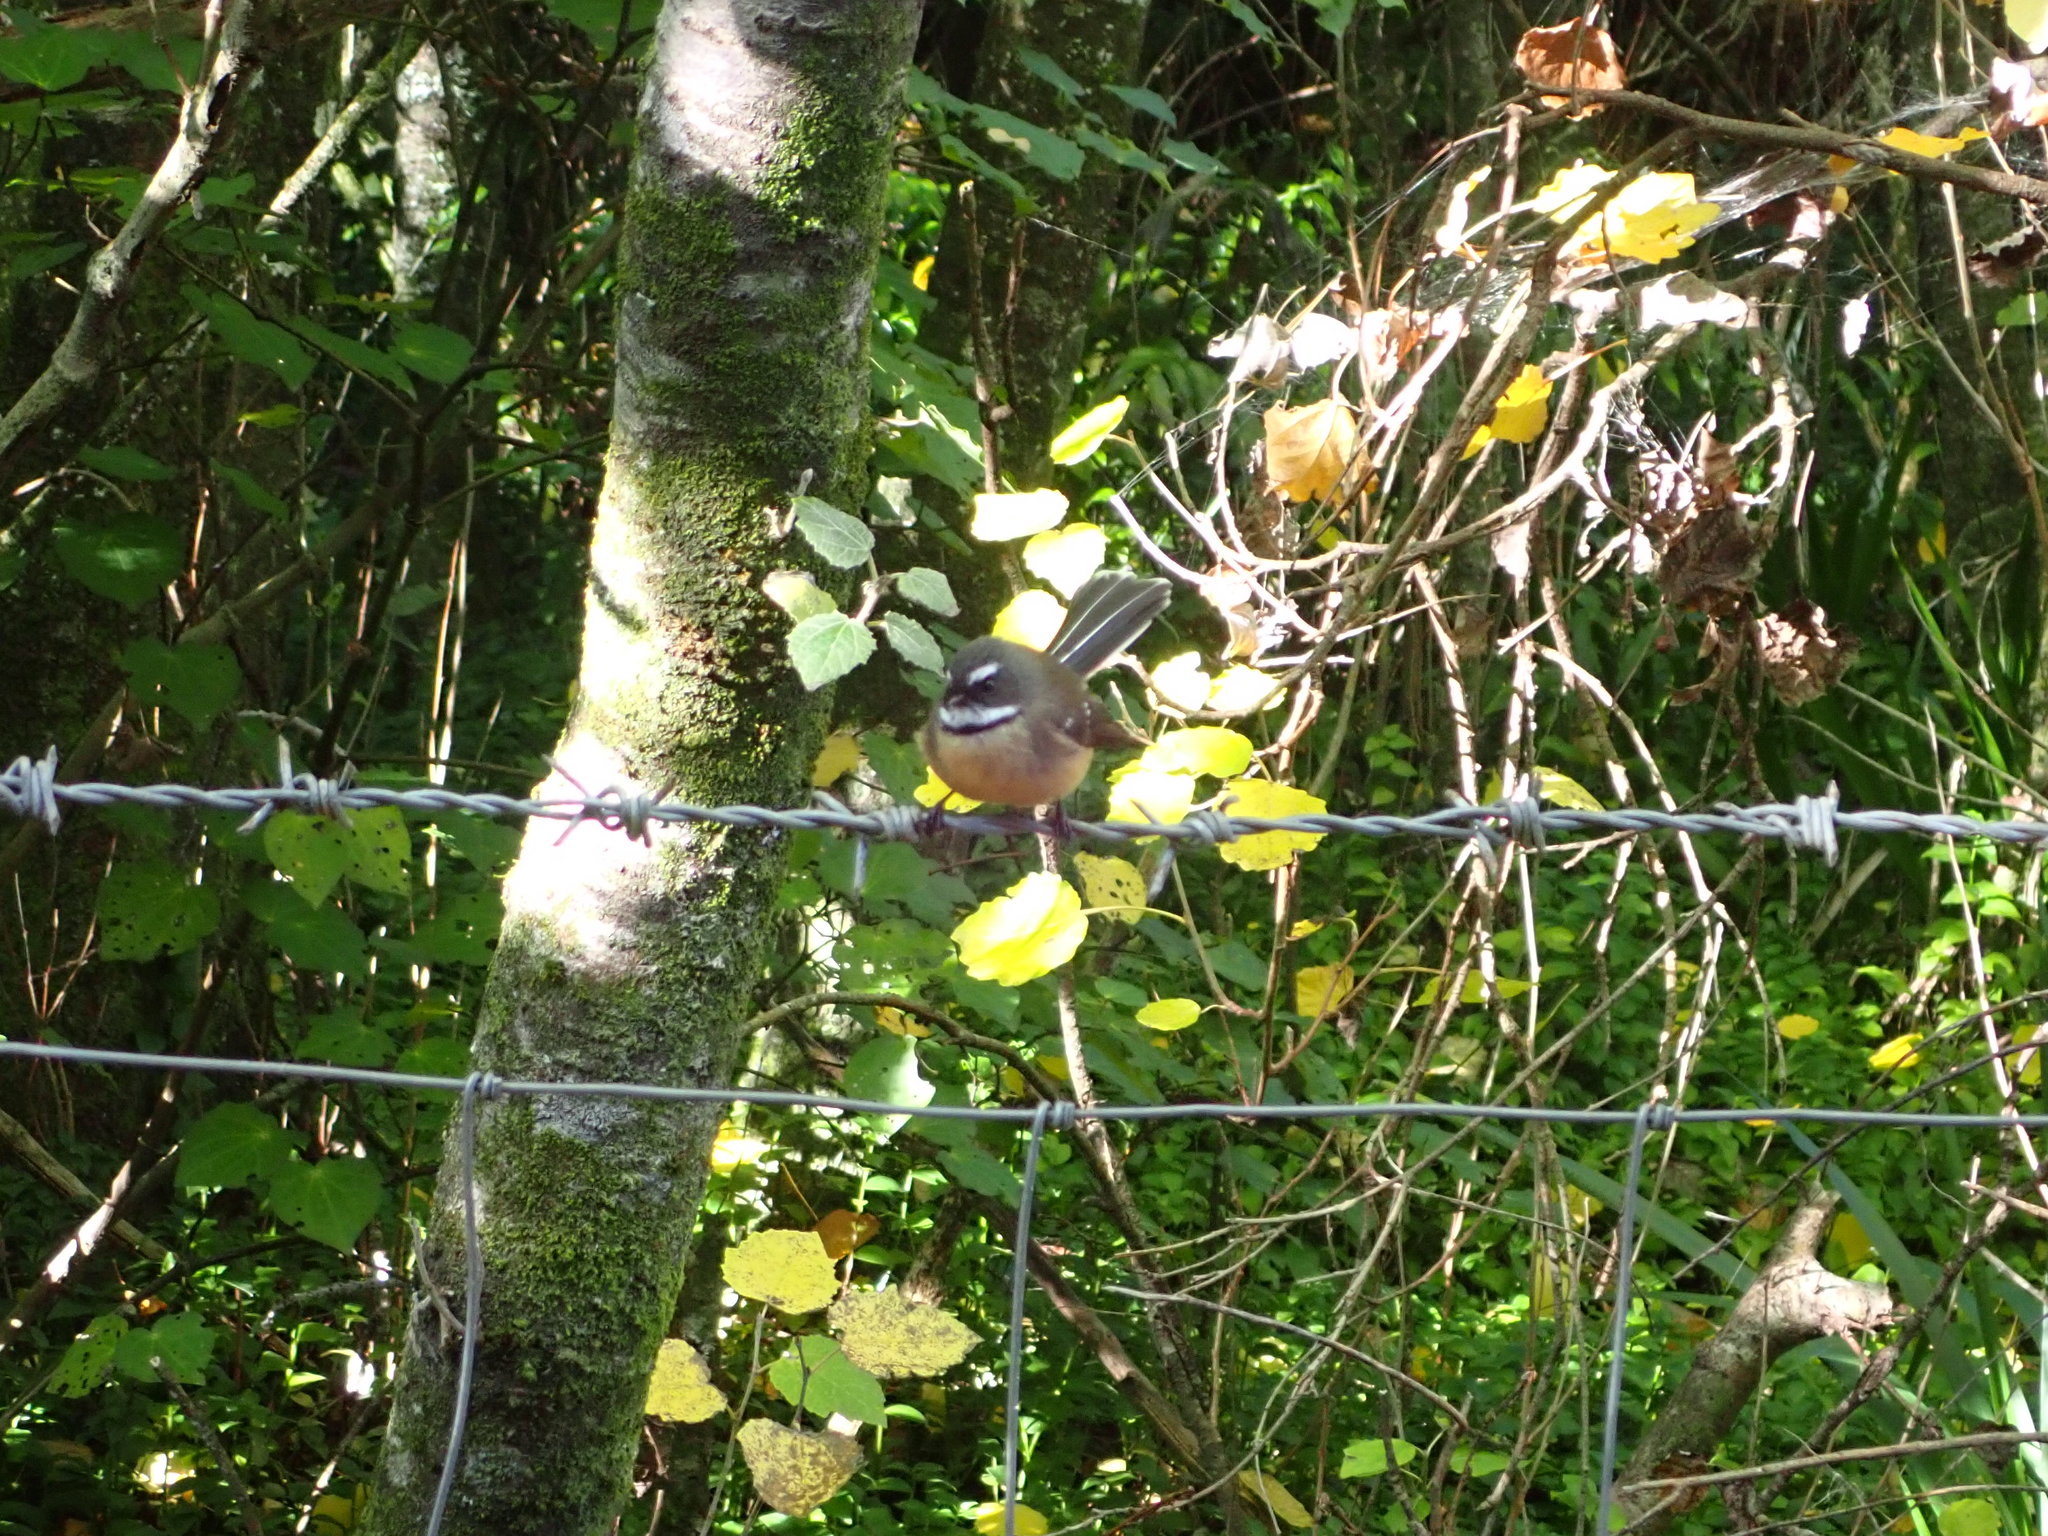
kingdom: Animalia
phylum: Chordata
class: Aves
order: Passeriformes
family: Rhipiduridae
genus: Rhipidura
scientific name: Rhipidura fuliginosa
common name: New zealand fantail
